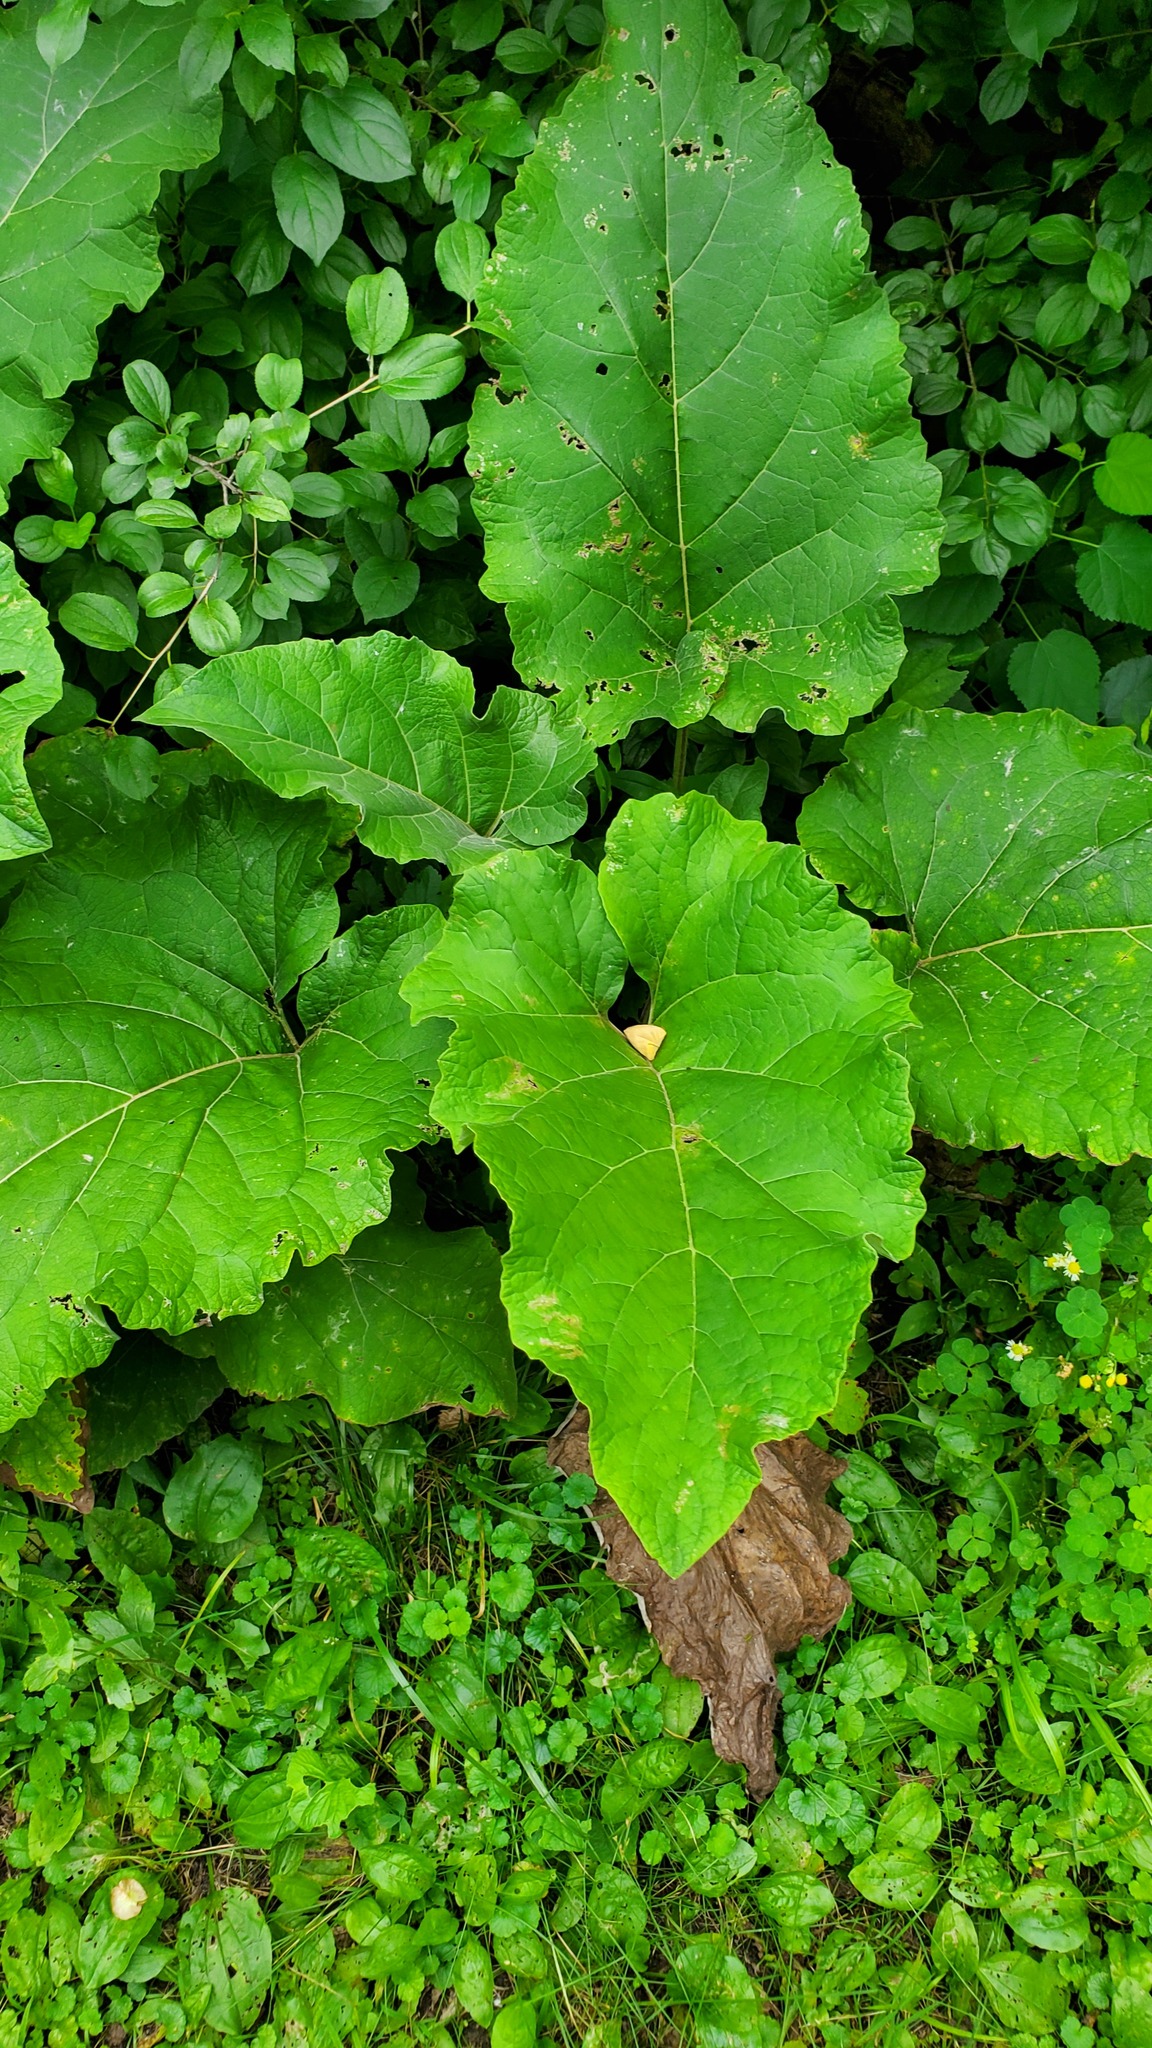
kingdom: Plantae
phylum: Tracheophyta
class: Magnoliopsida
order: Asterales
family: Asteraceae
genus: Arctium
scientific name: Arctium minus
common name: Lesser burdock
